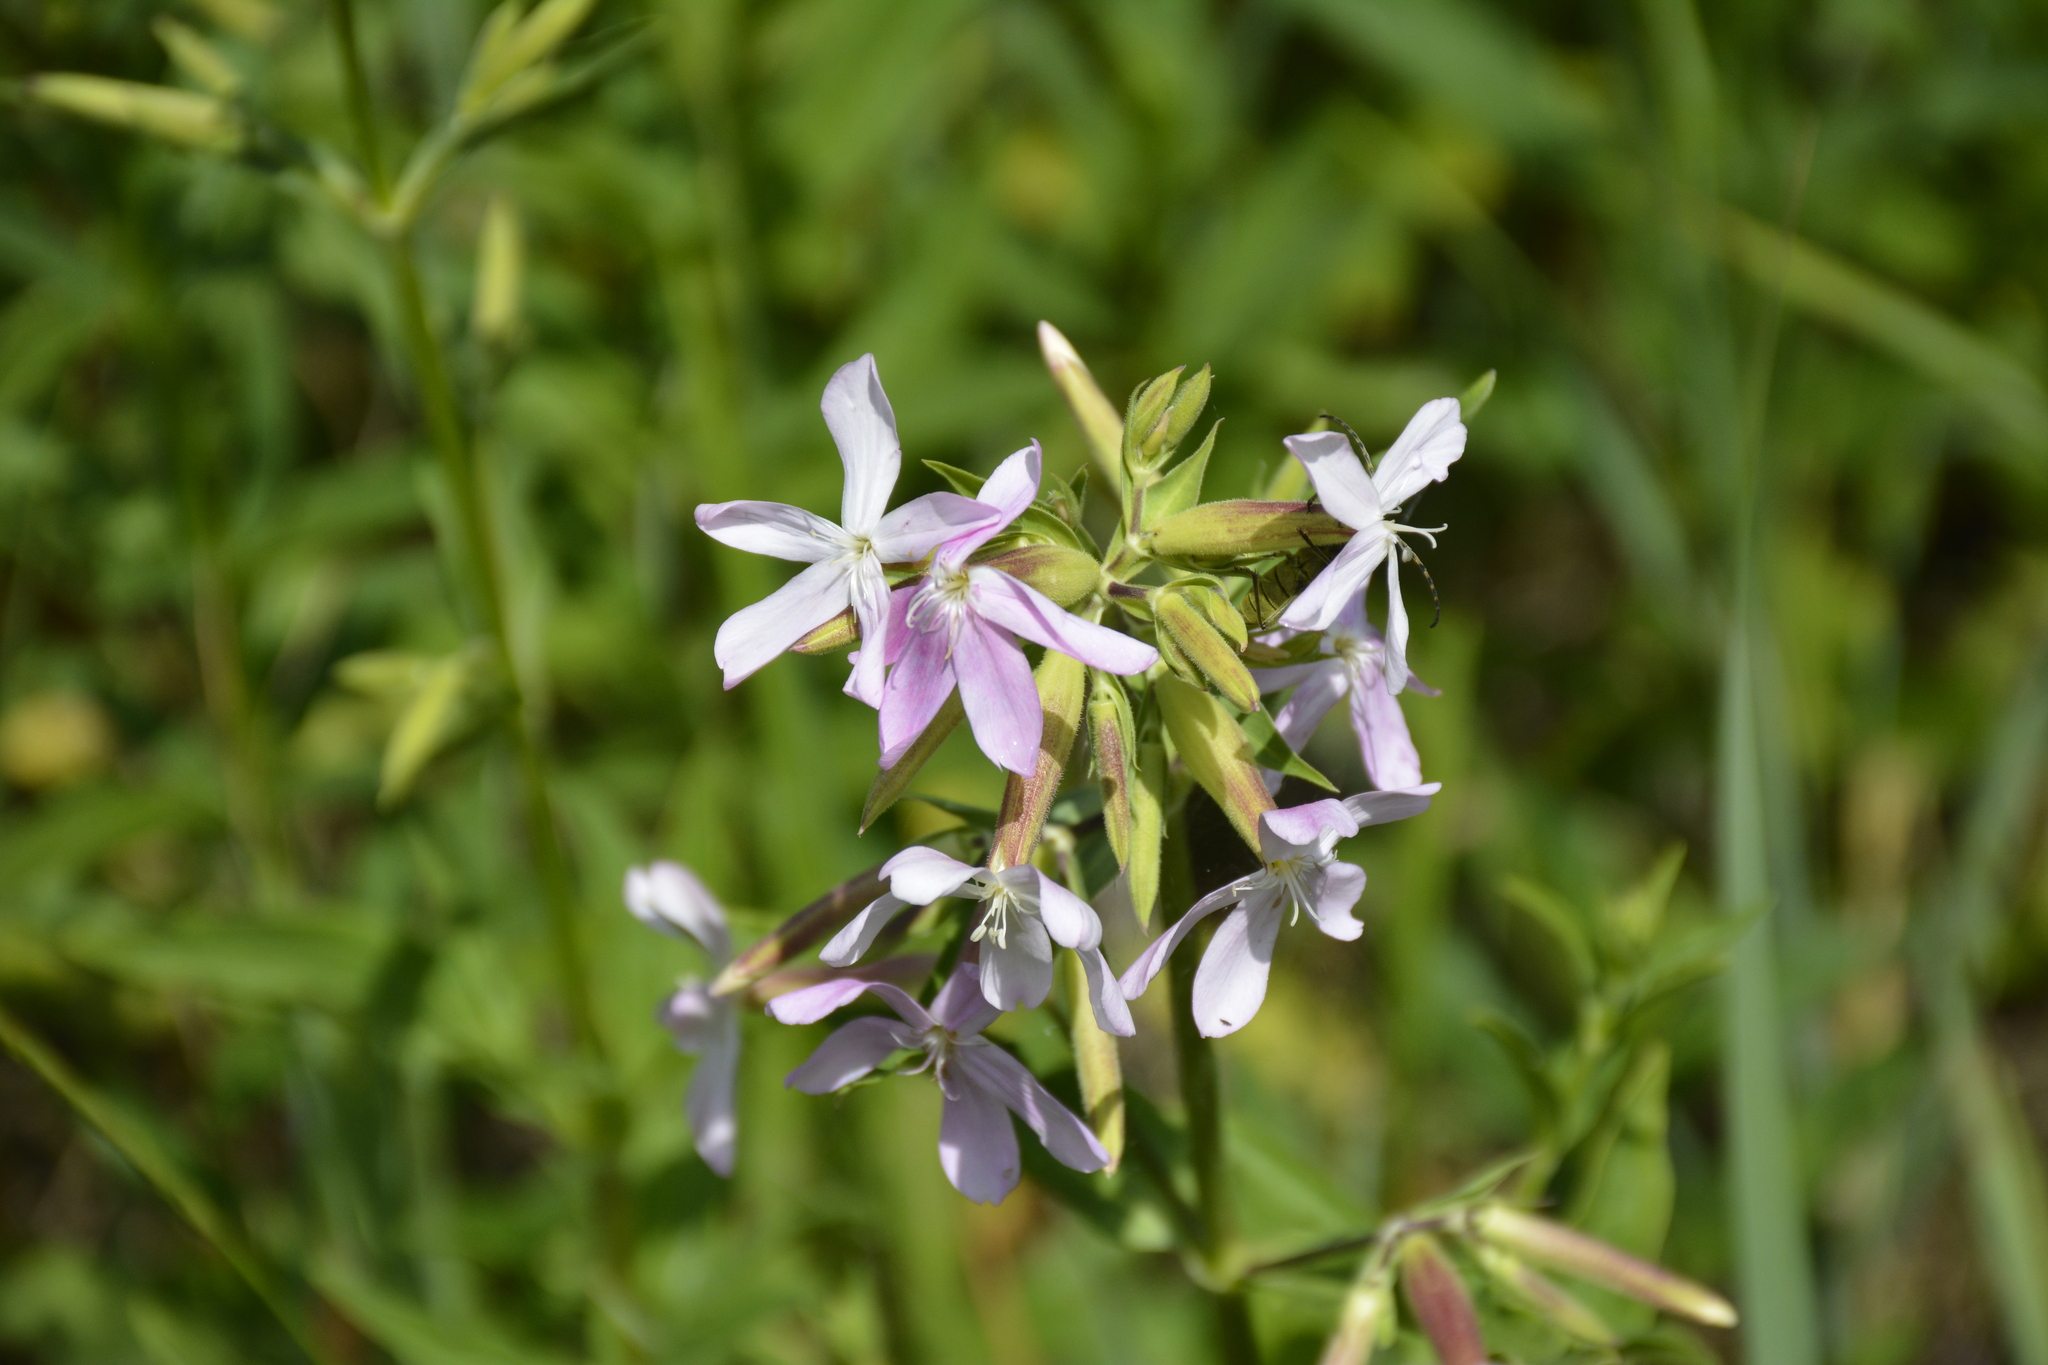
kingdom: Plantae
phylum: Tracheophyta
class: Magnoliopsida
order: Caryophyllales
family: Caryophyllaceae
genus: Saponaria
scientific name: Saponaria officinalis
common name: Soapwort
